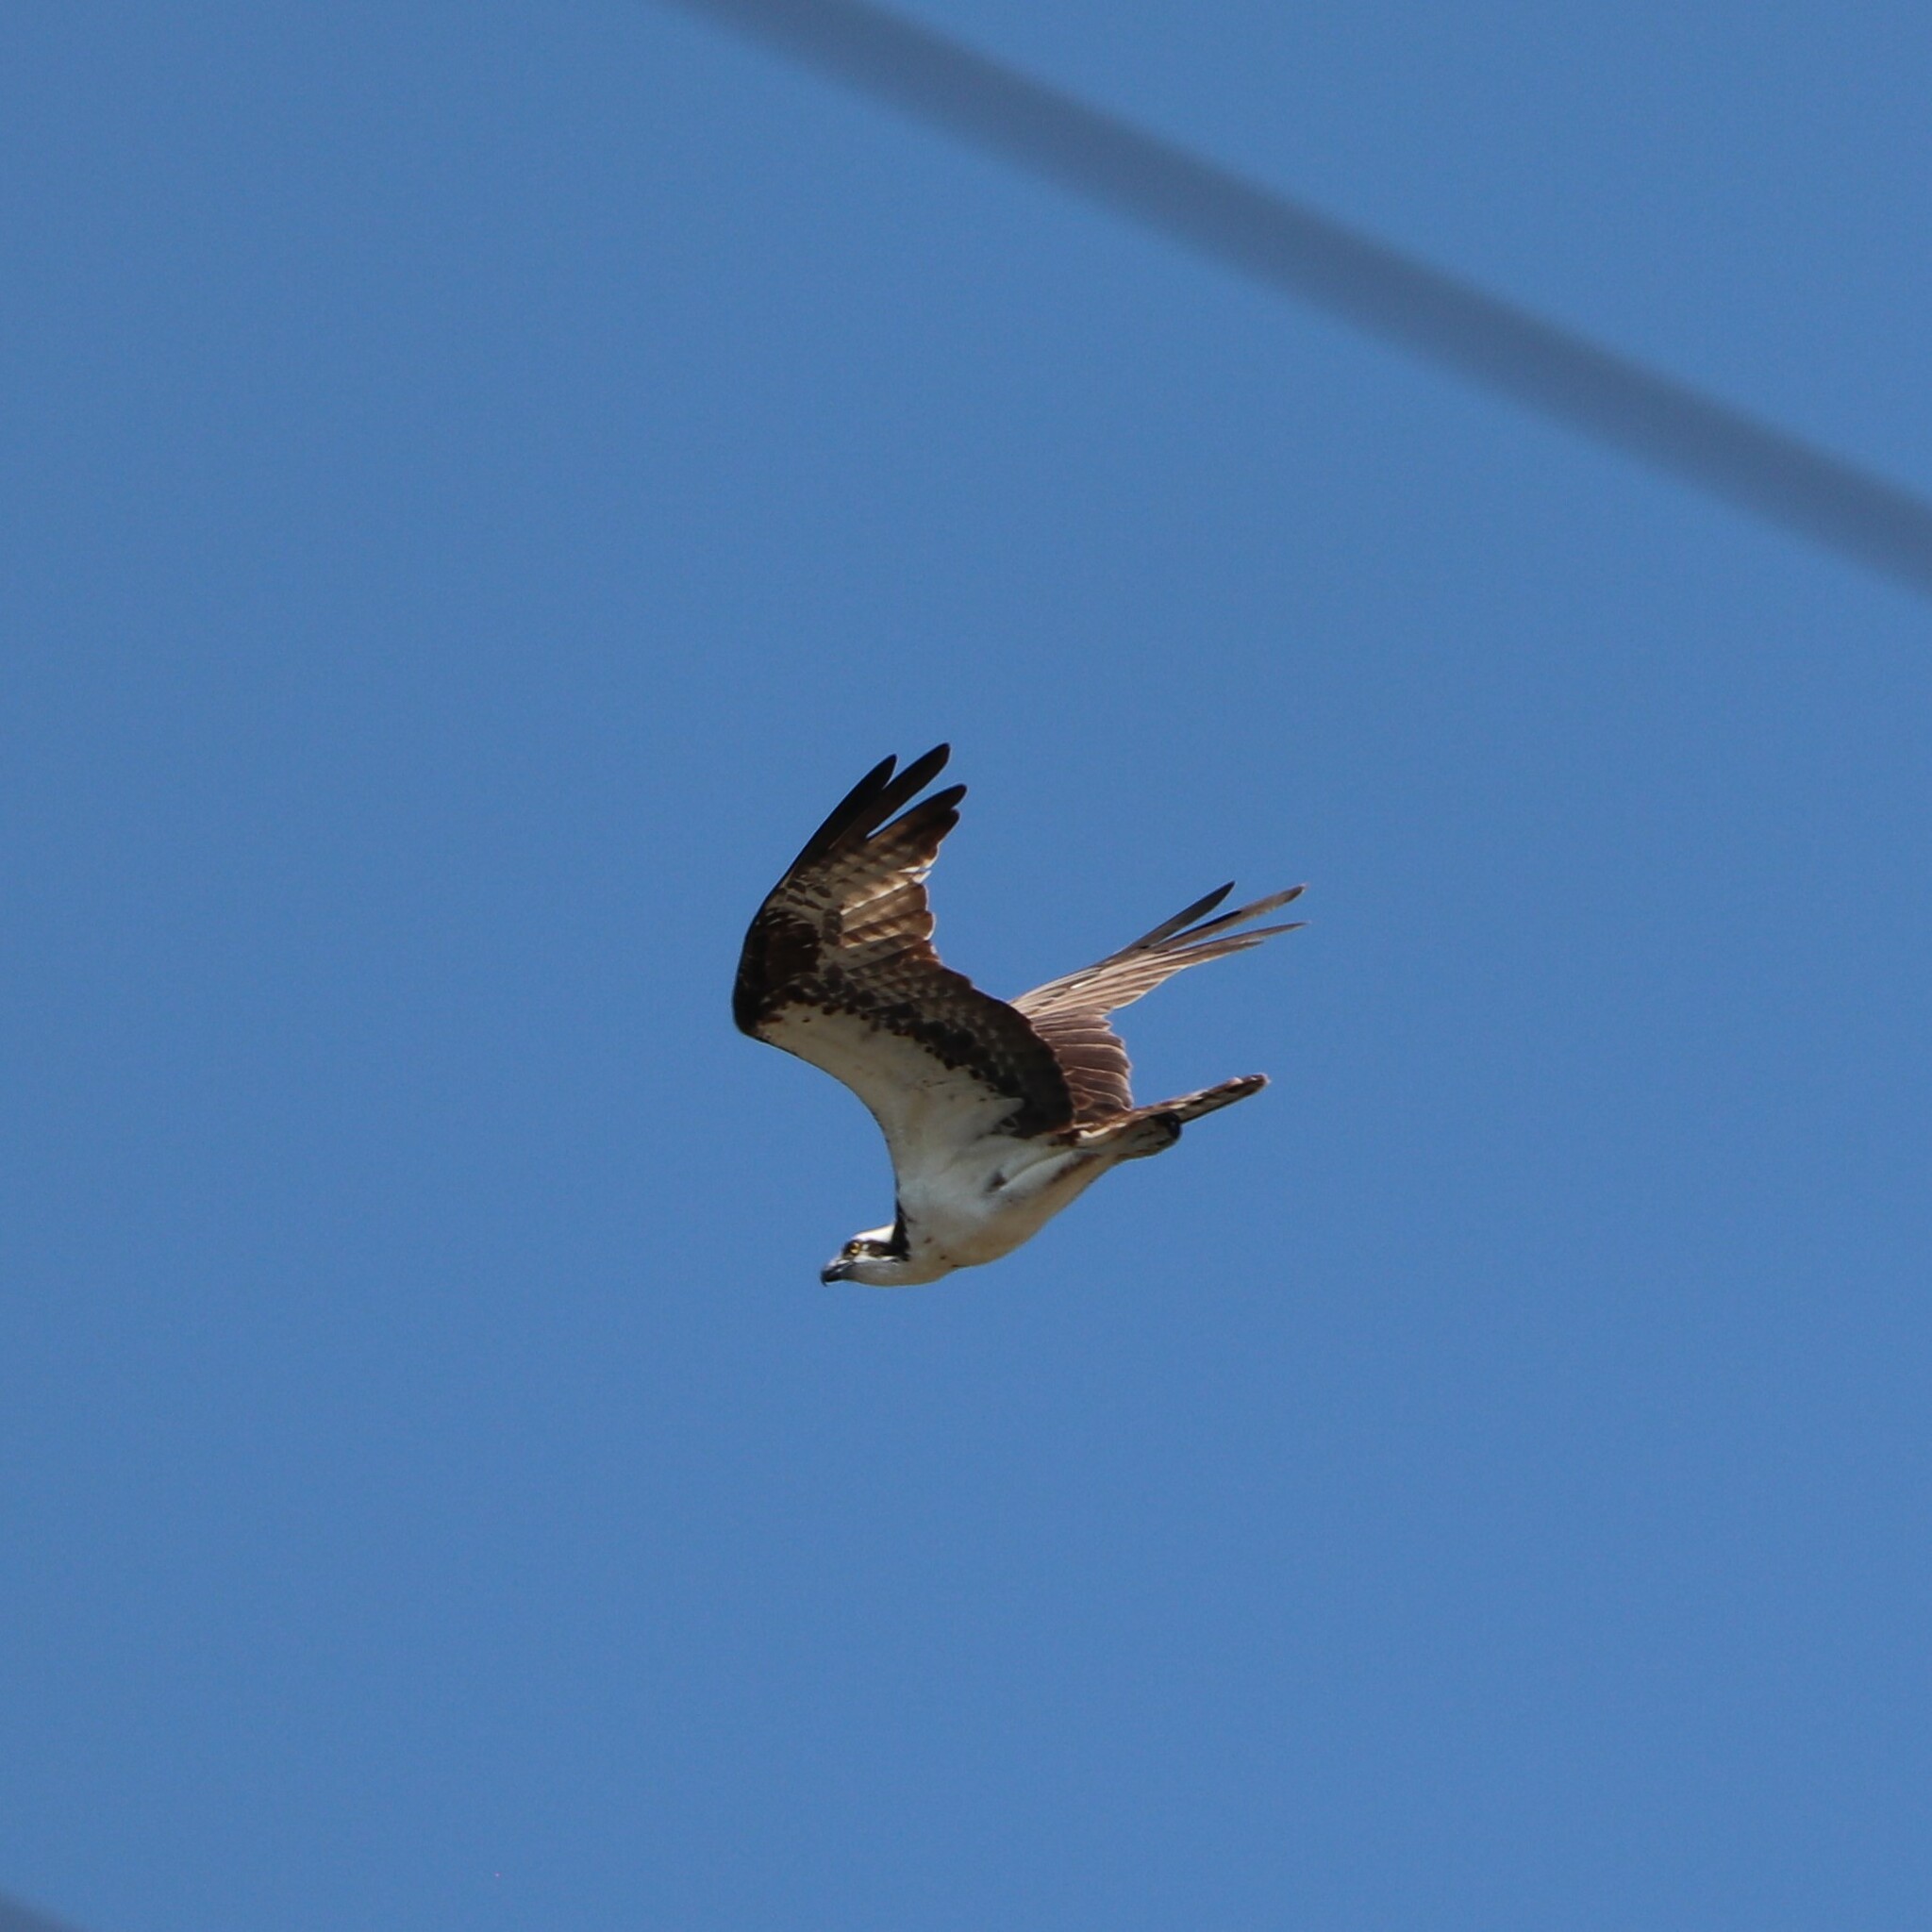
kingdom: Animalia
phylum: Chordata
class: Aves
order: Accipitriformes
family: Pandionidae
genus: Pandion
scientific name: Pandion haliaetus
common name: Osprey
